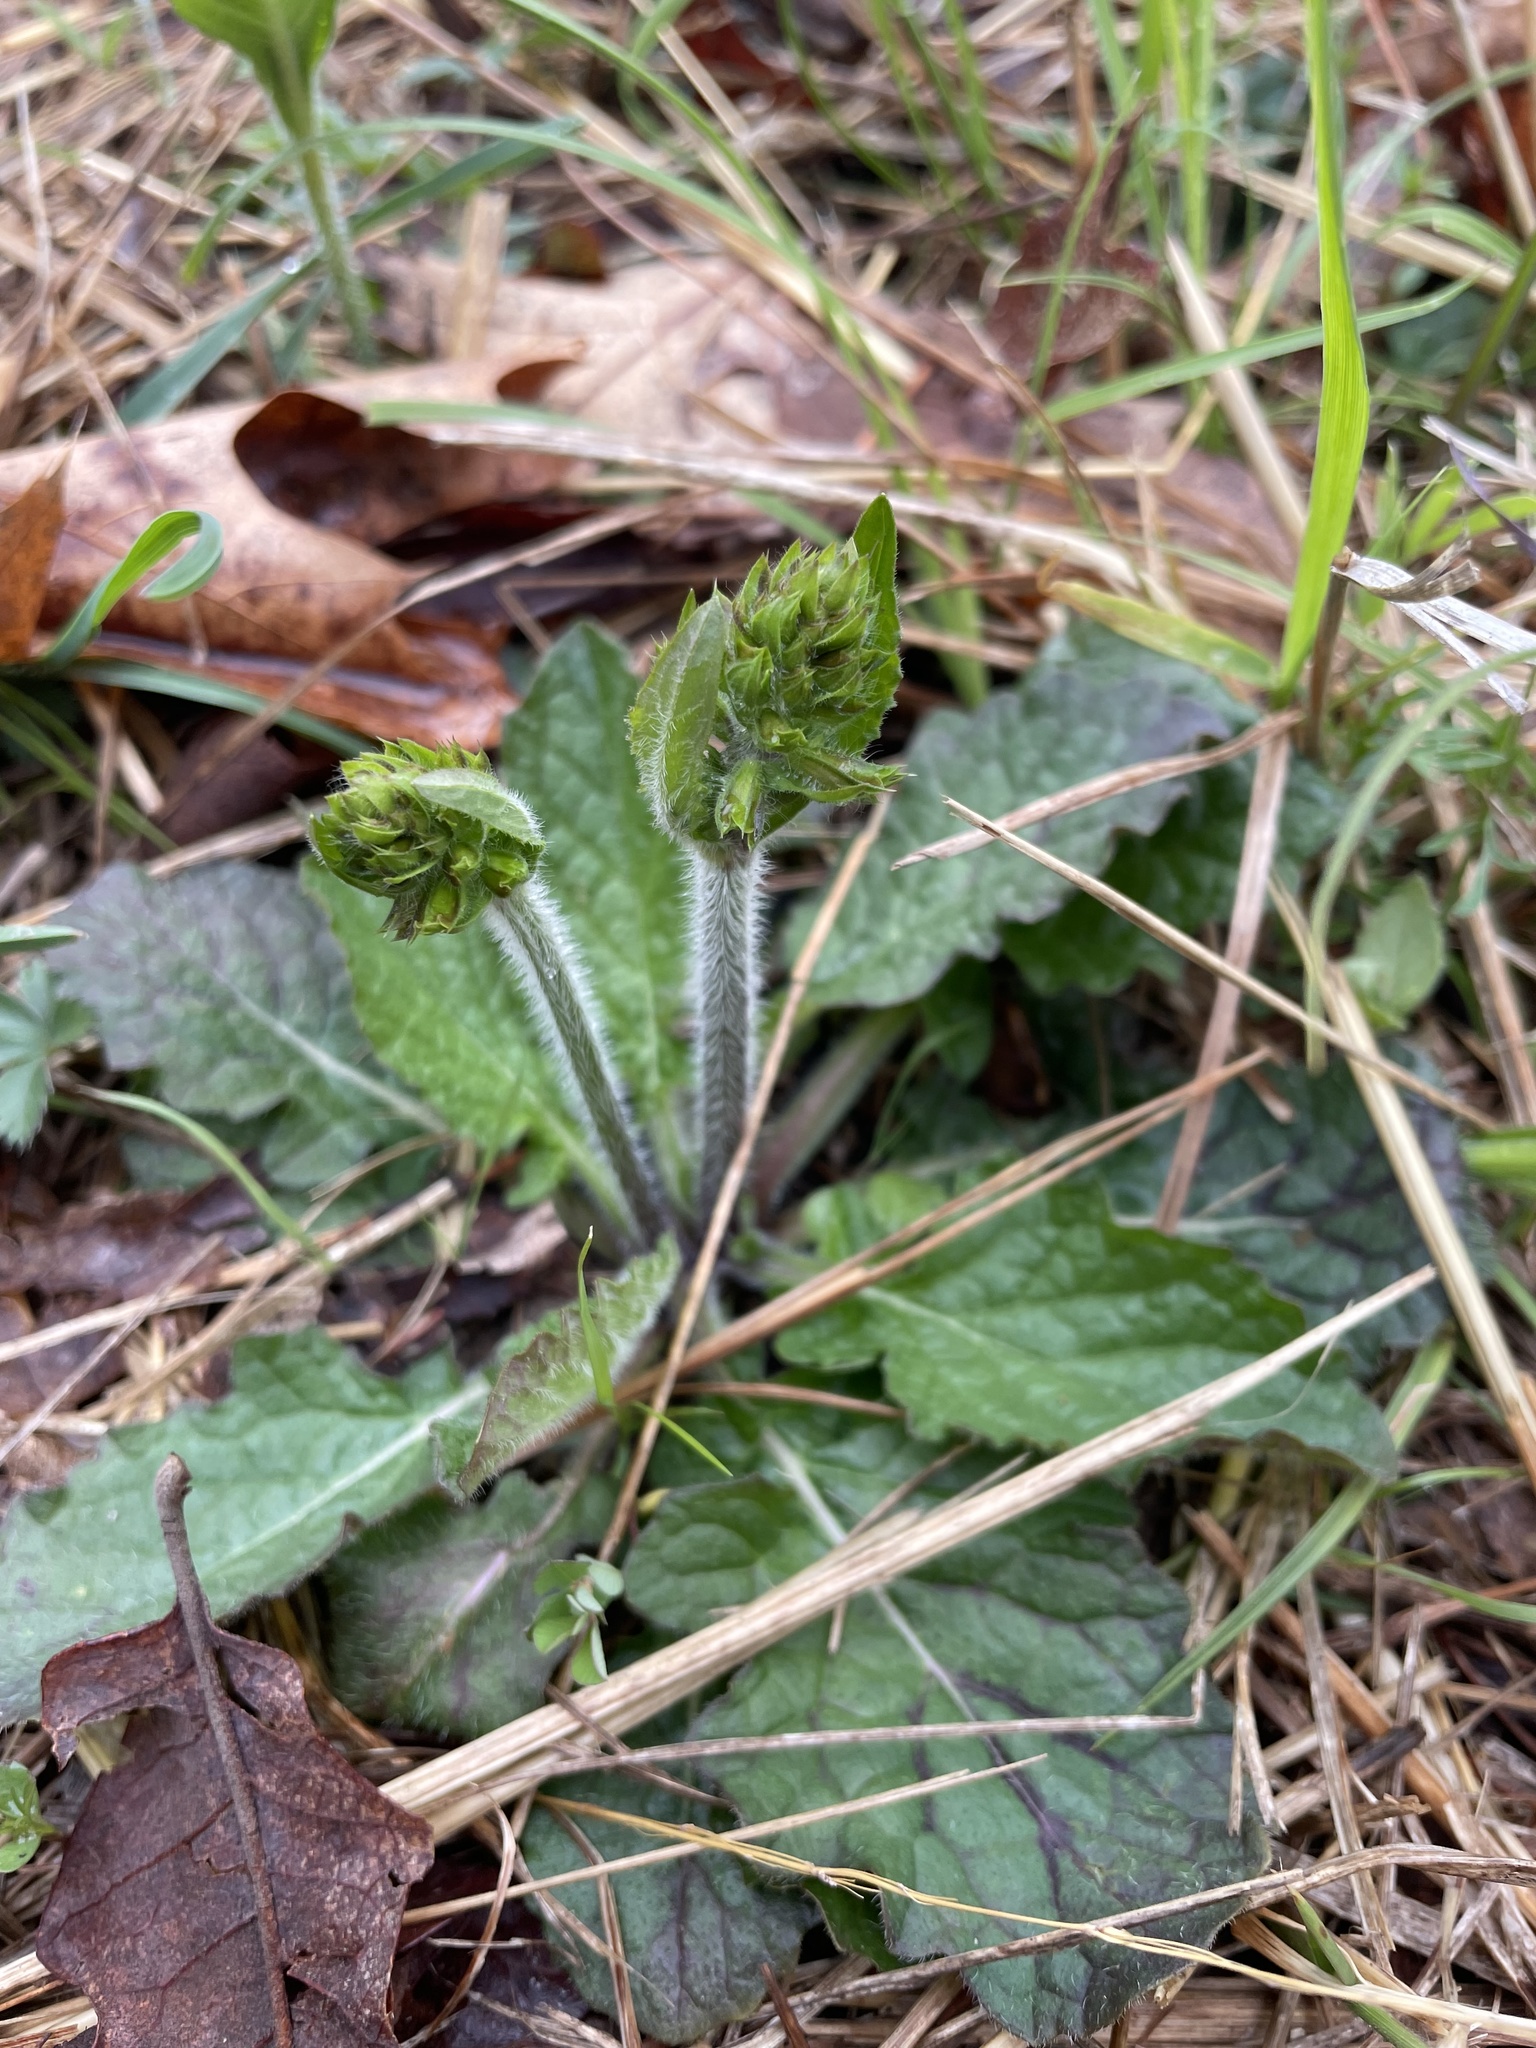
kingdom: Plantae
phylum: Tracheophyta
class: Magnoliopsida
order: Lamiales
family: Lamiaceae
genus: Salvia
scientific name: Salvia lyrata
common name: Cancerweed
